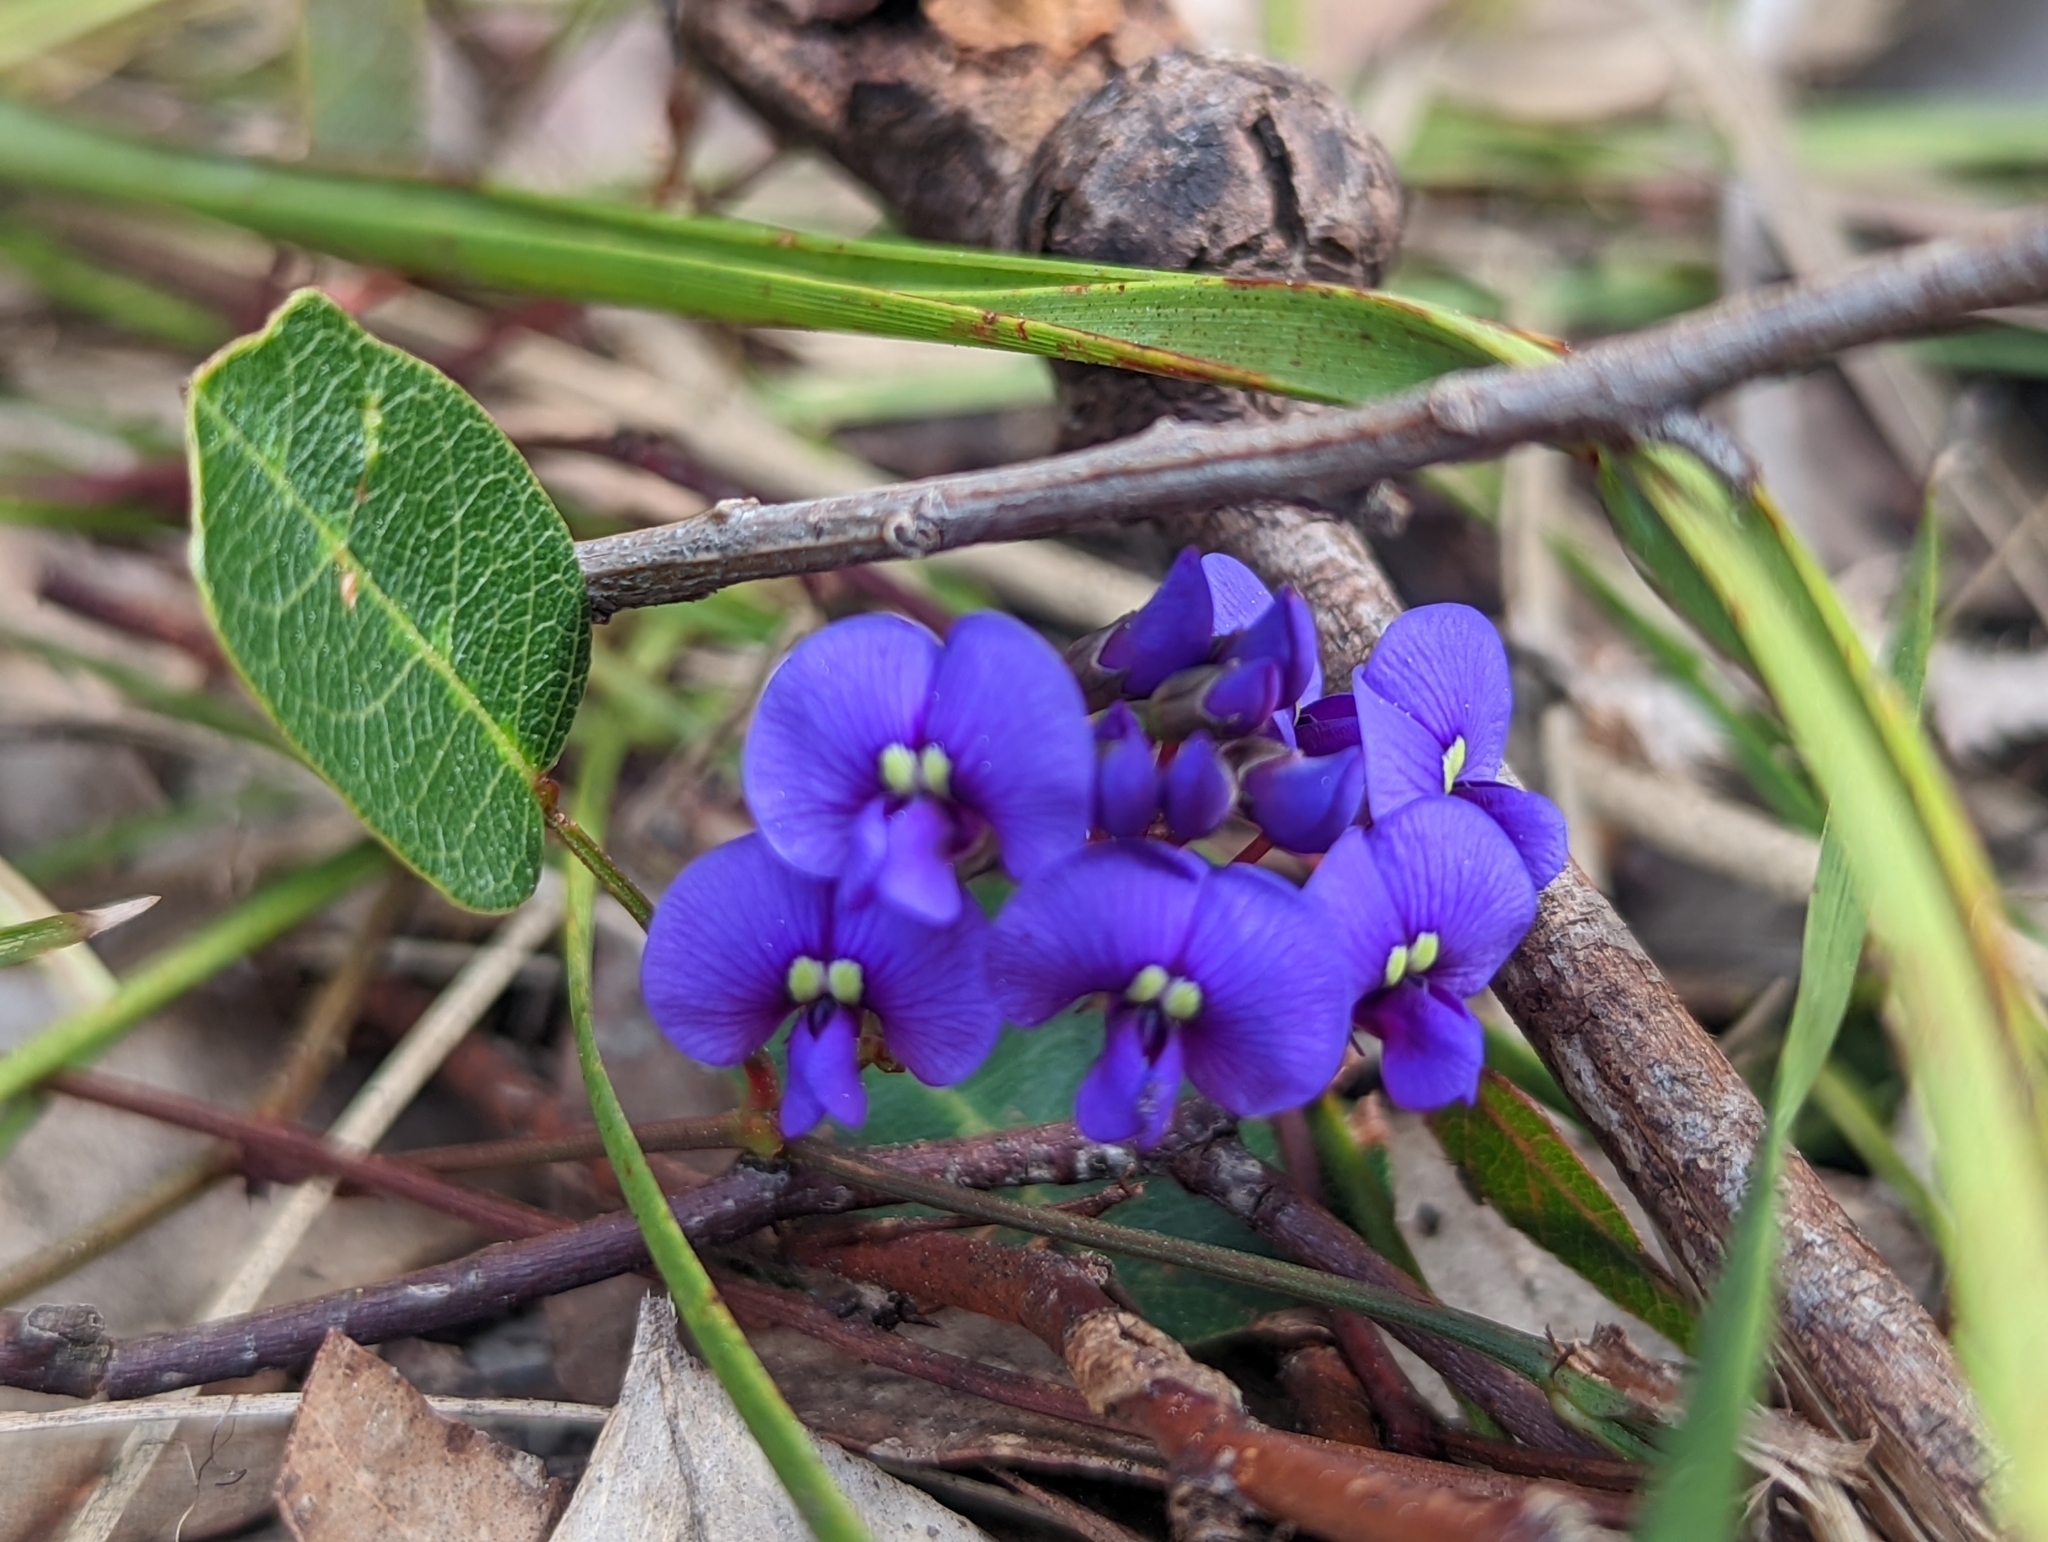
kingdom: Plantae
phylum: Tracheophyta
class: Magnoliopsida
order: Fabales
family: Fabaceae
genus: Hardenbergia
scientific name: Hardenbergia violacea
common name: Coral-pea
